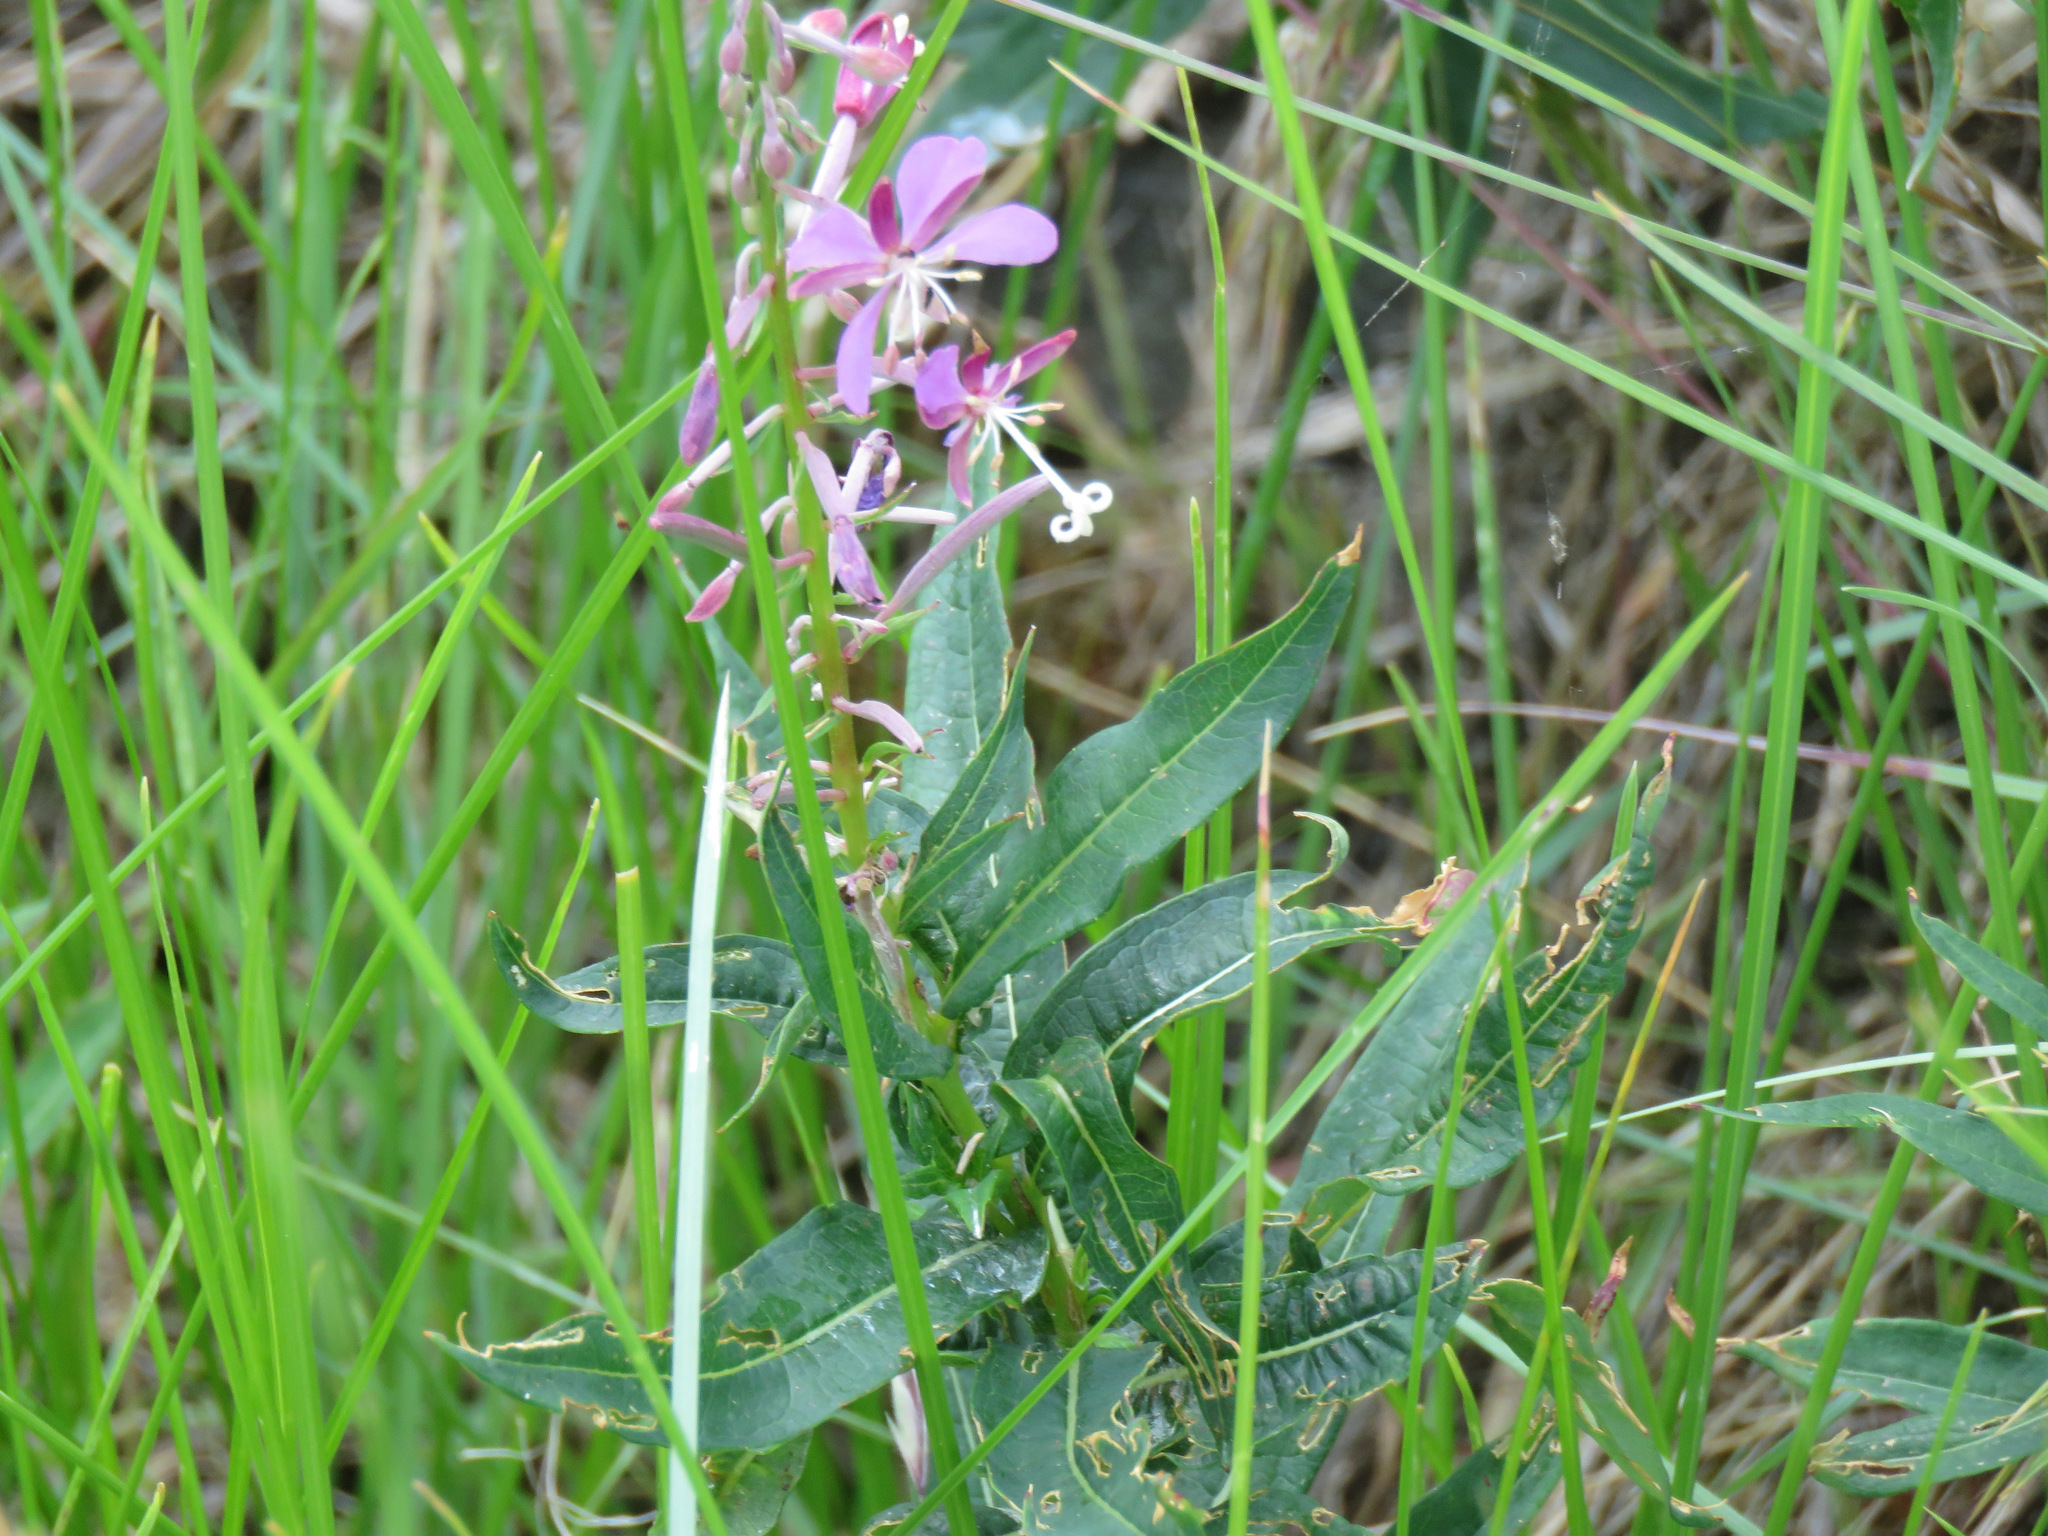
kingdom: Plantae
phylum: Tracheophyta
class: Magnoliopsida
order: Myrtales
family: Onagraceae
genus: Chamaenerion
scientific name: Chamaenerion angustifolium
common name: Fireweed
